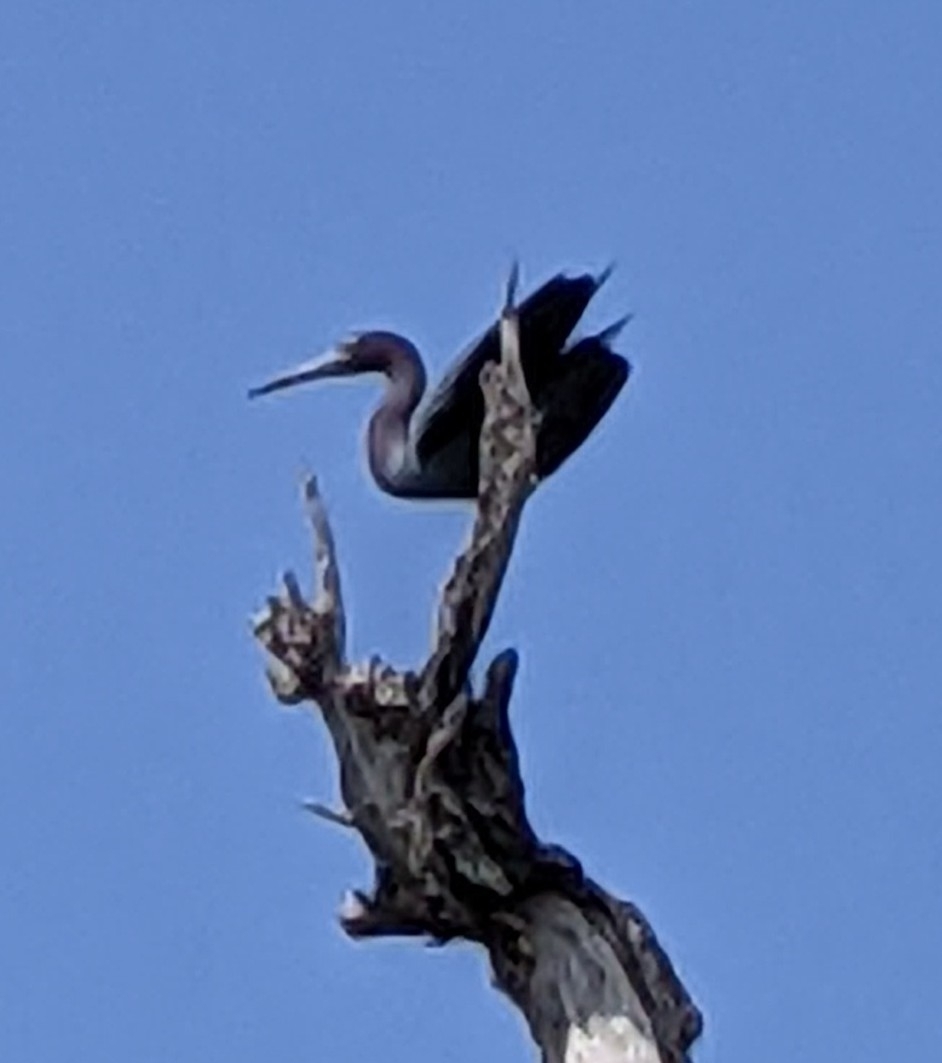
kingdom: Animalia
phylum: Chordata
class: Aves
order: Pelecaniformes
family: Ardeidae
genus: Egretta
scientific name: Egretta caerulea
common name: Little blue heron
